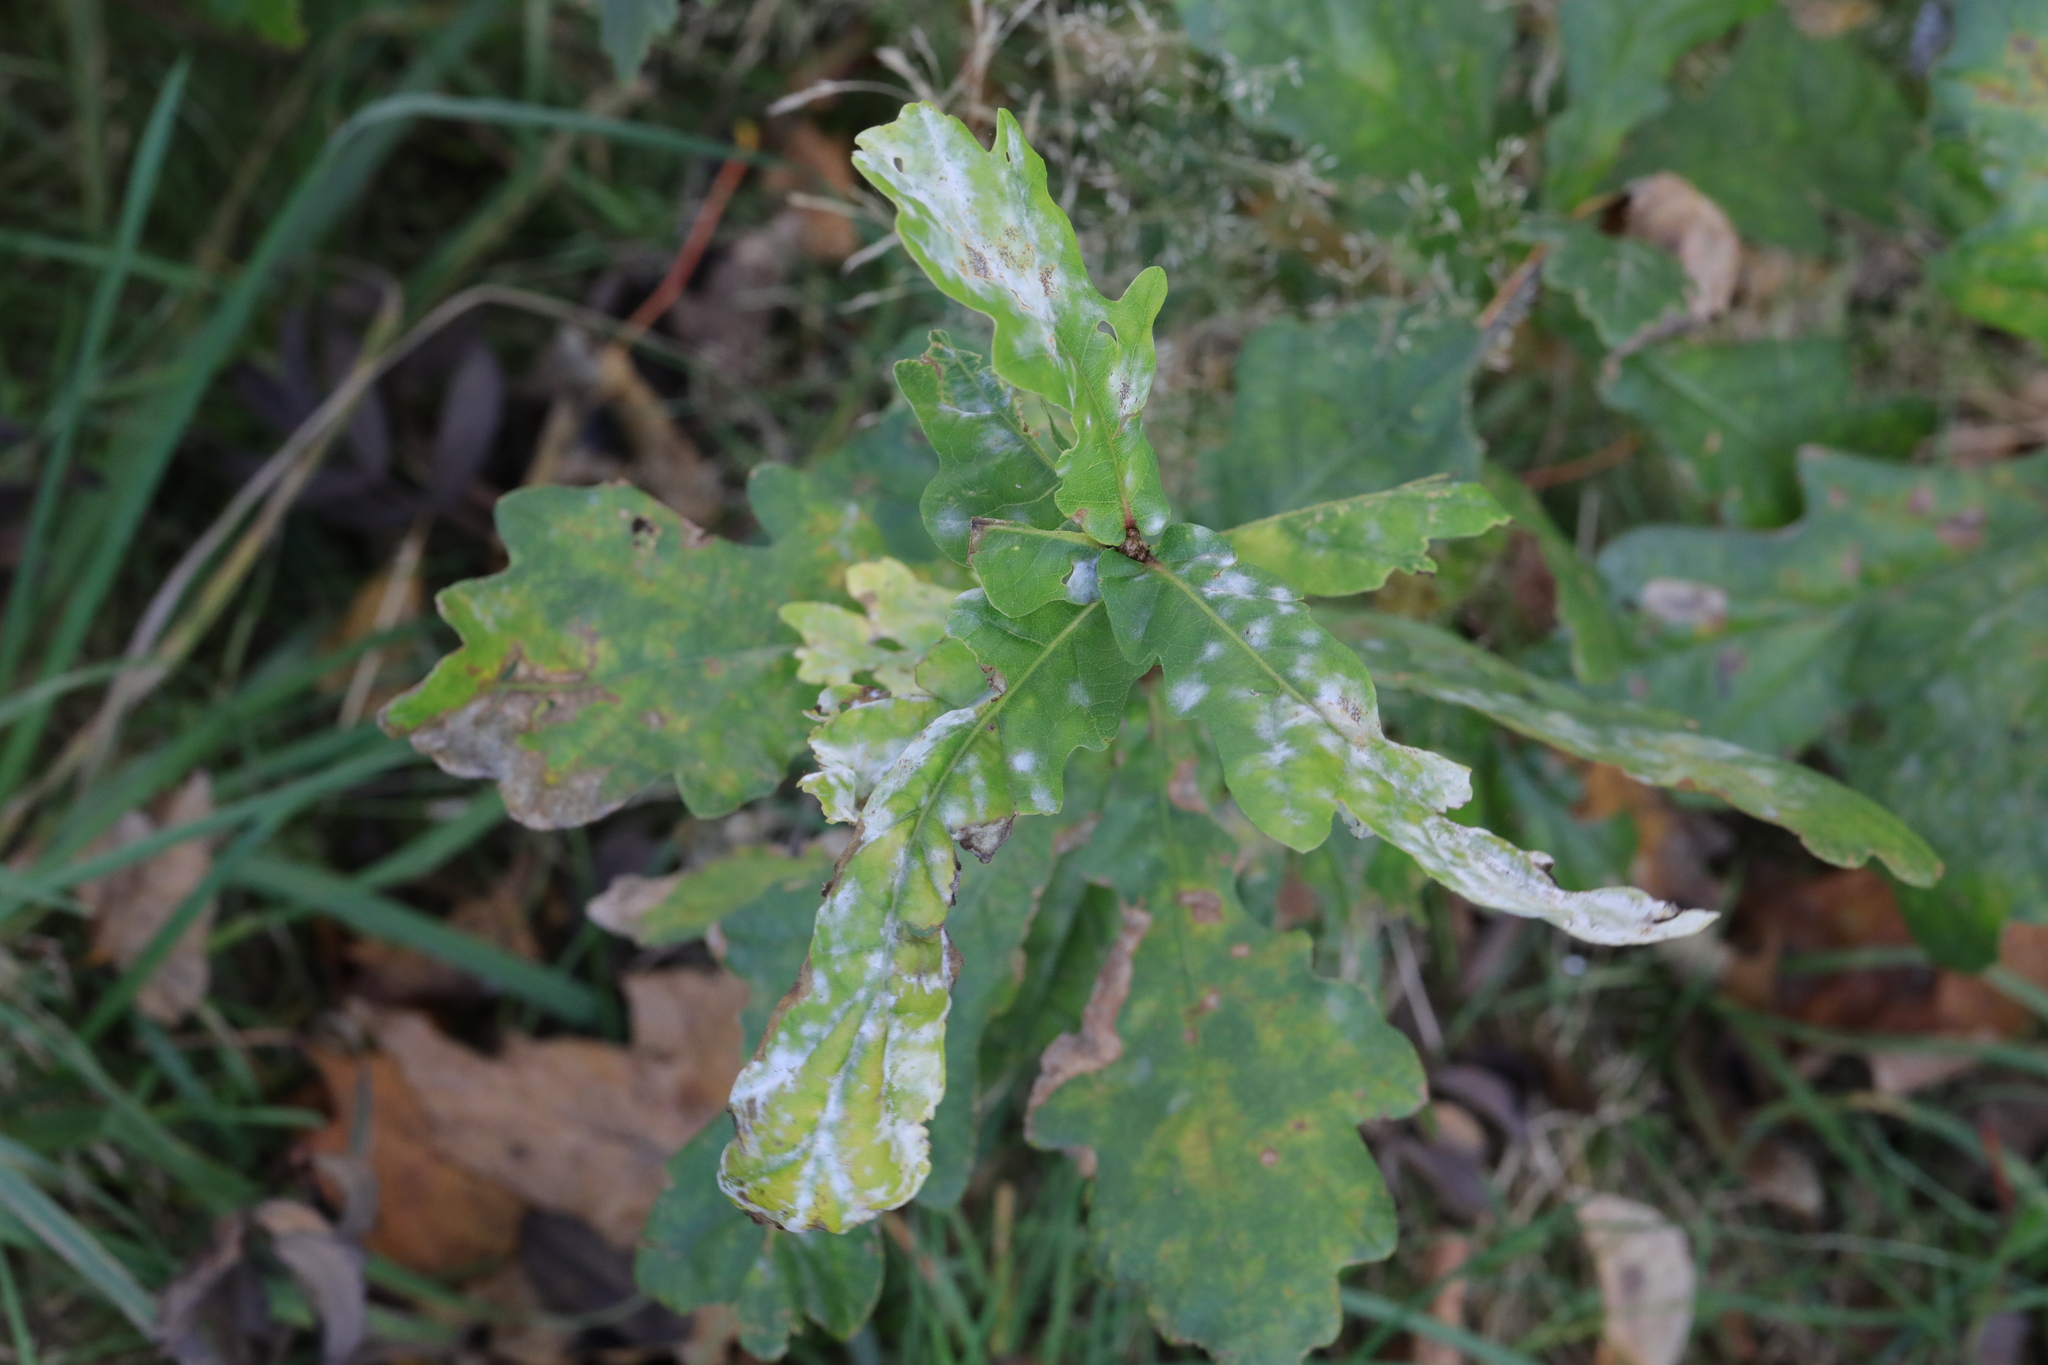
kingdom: Fungi
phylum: Ascomycota
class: Leotiomycetes
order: Helotiales
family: Erysiphaceae
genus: Erysiphe
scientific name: Erysiphe alphitoides
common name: Oak mildew
